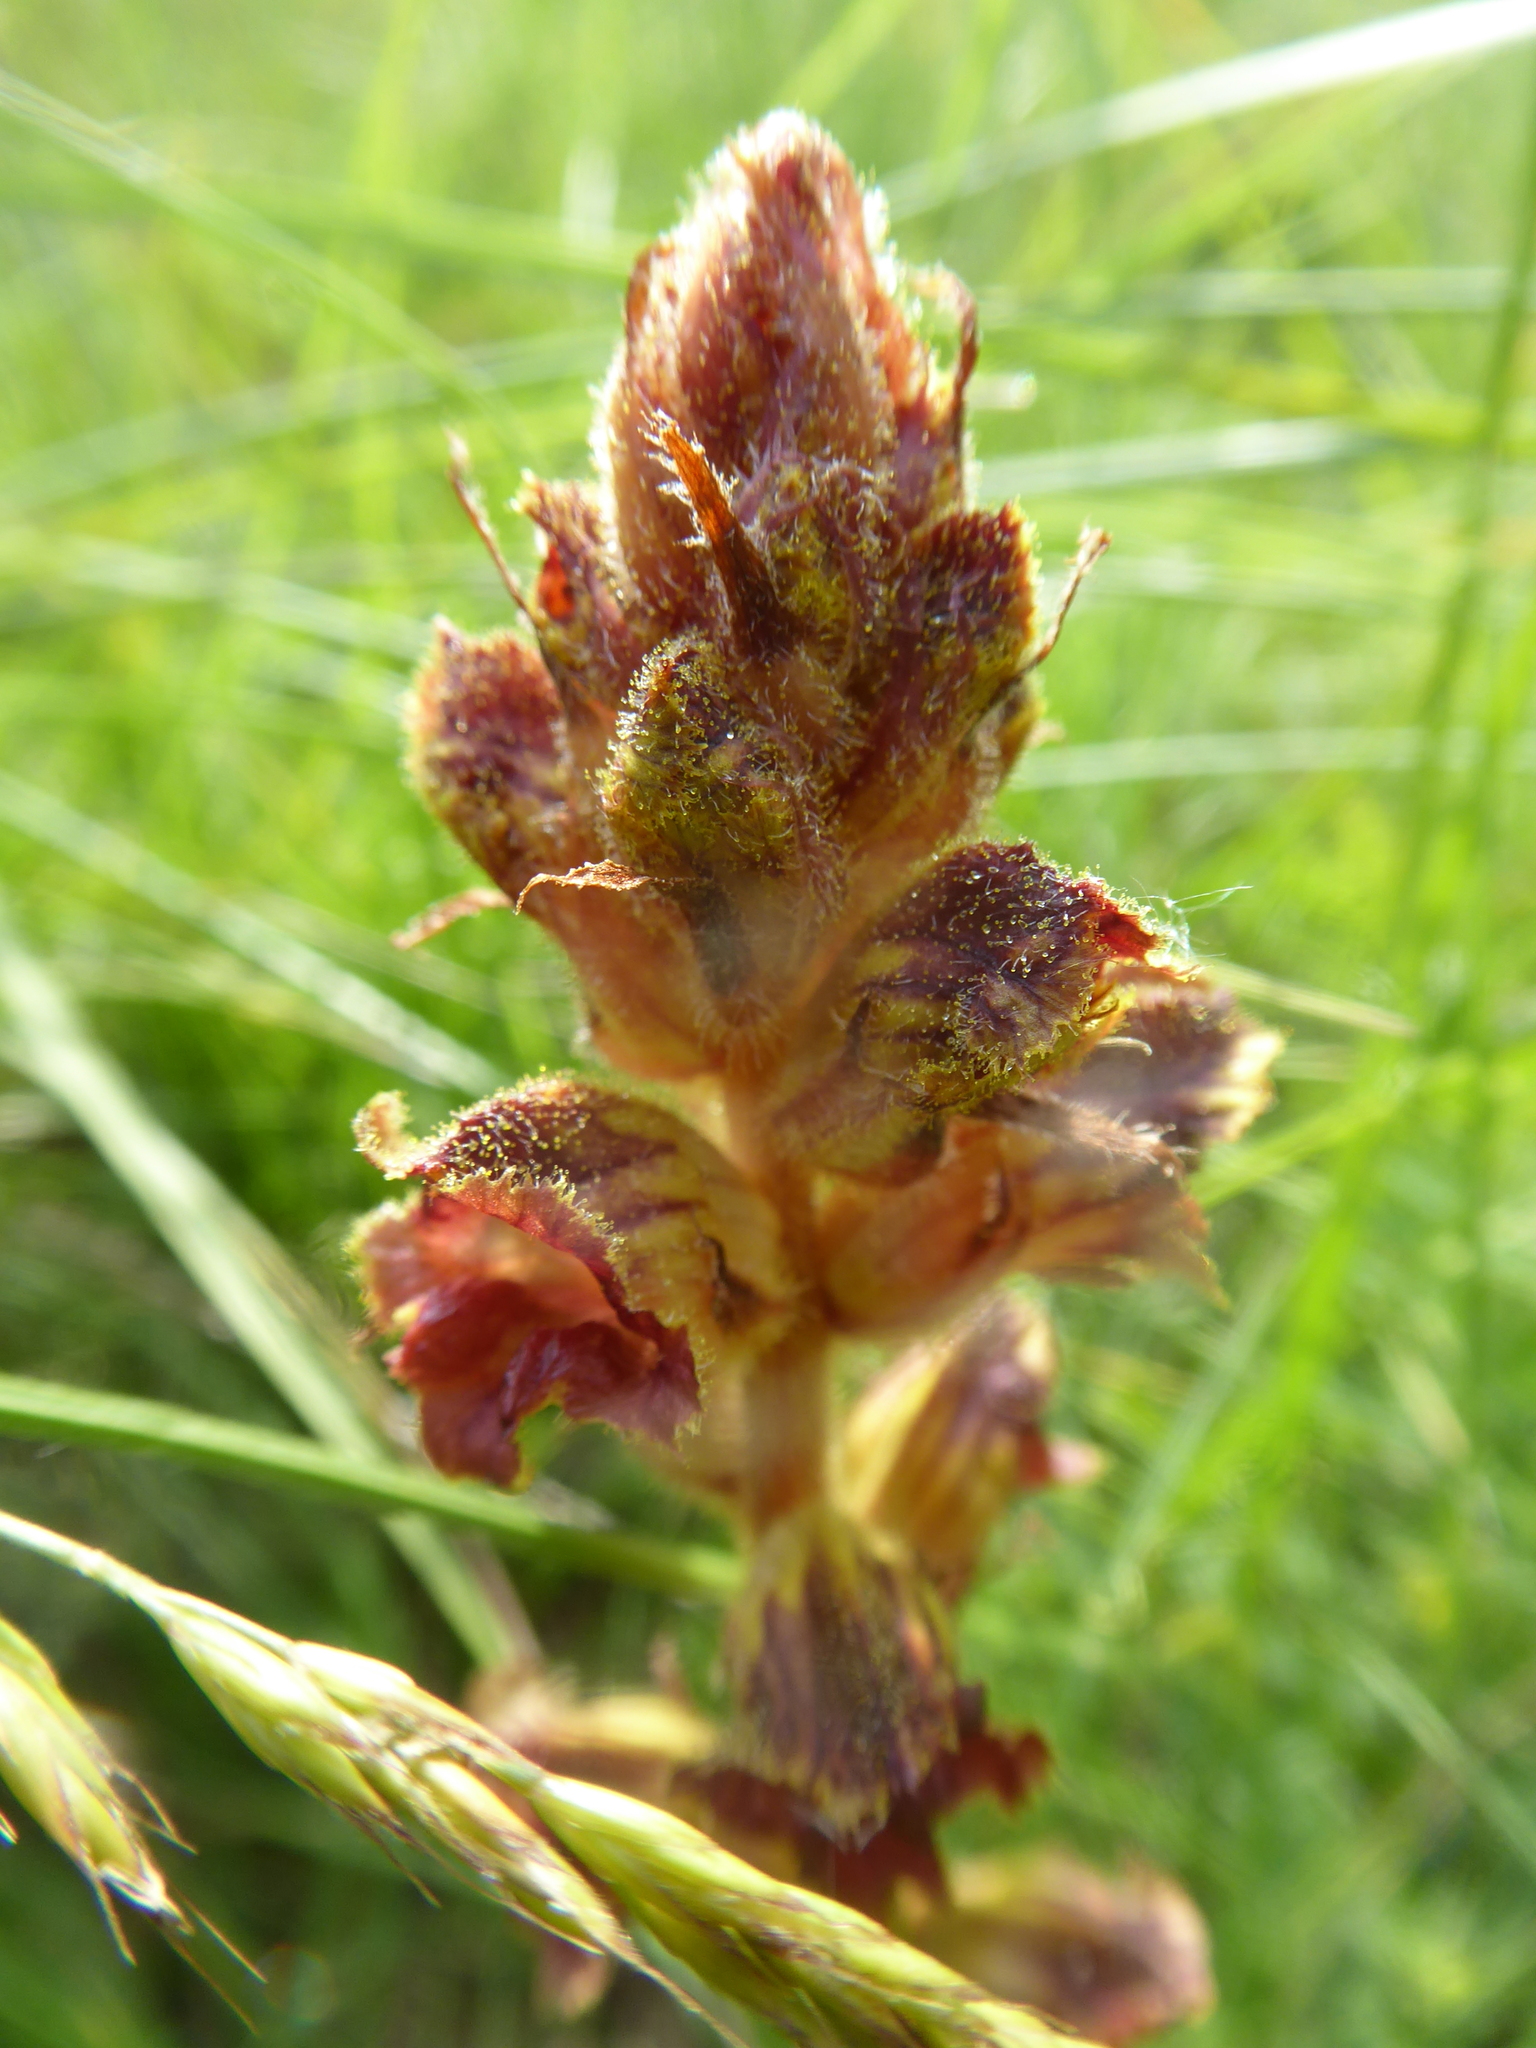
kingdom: Plantae
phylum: Tracheophyta
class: Magnoliopsida
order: Lamiales
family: Orobanchaceae
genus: Orobanche
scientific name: Orobanche gracilis
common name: Slender broomrape
